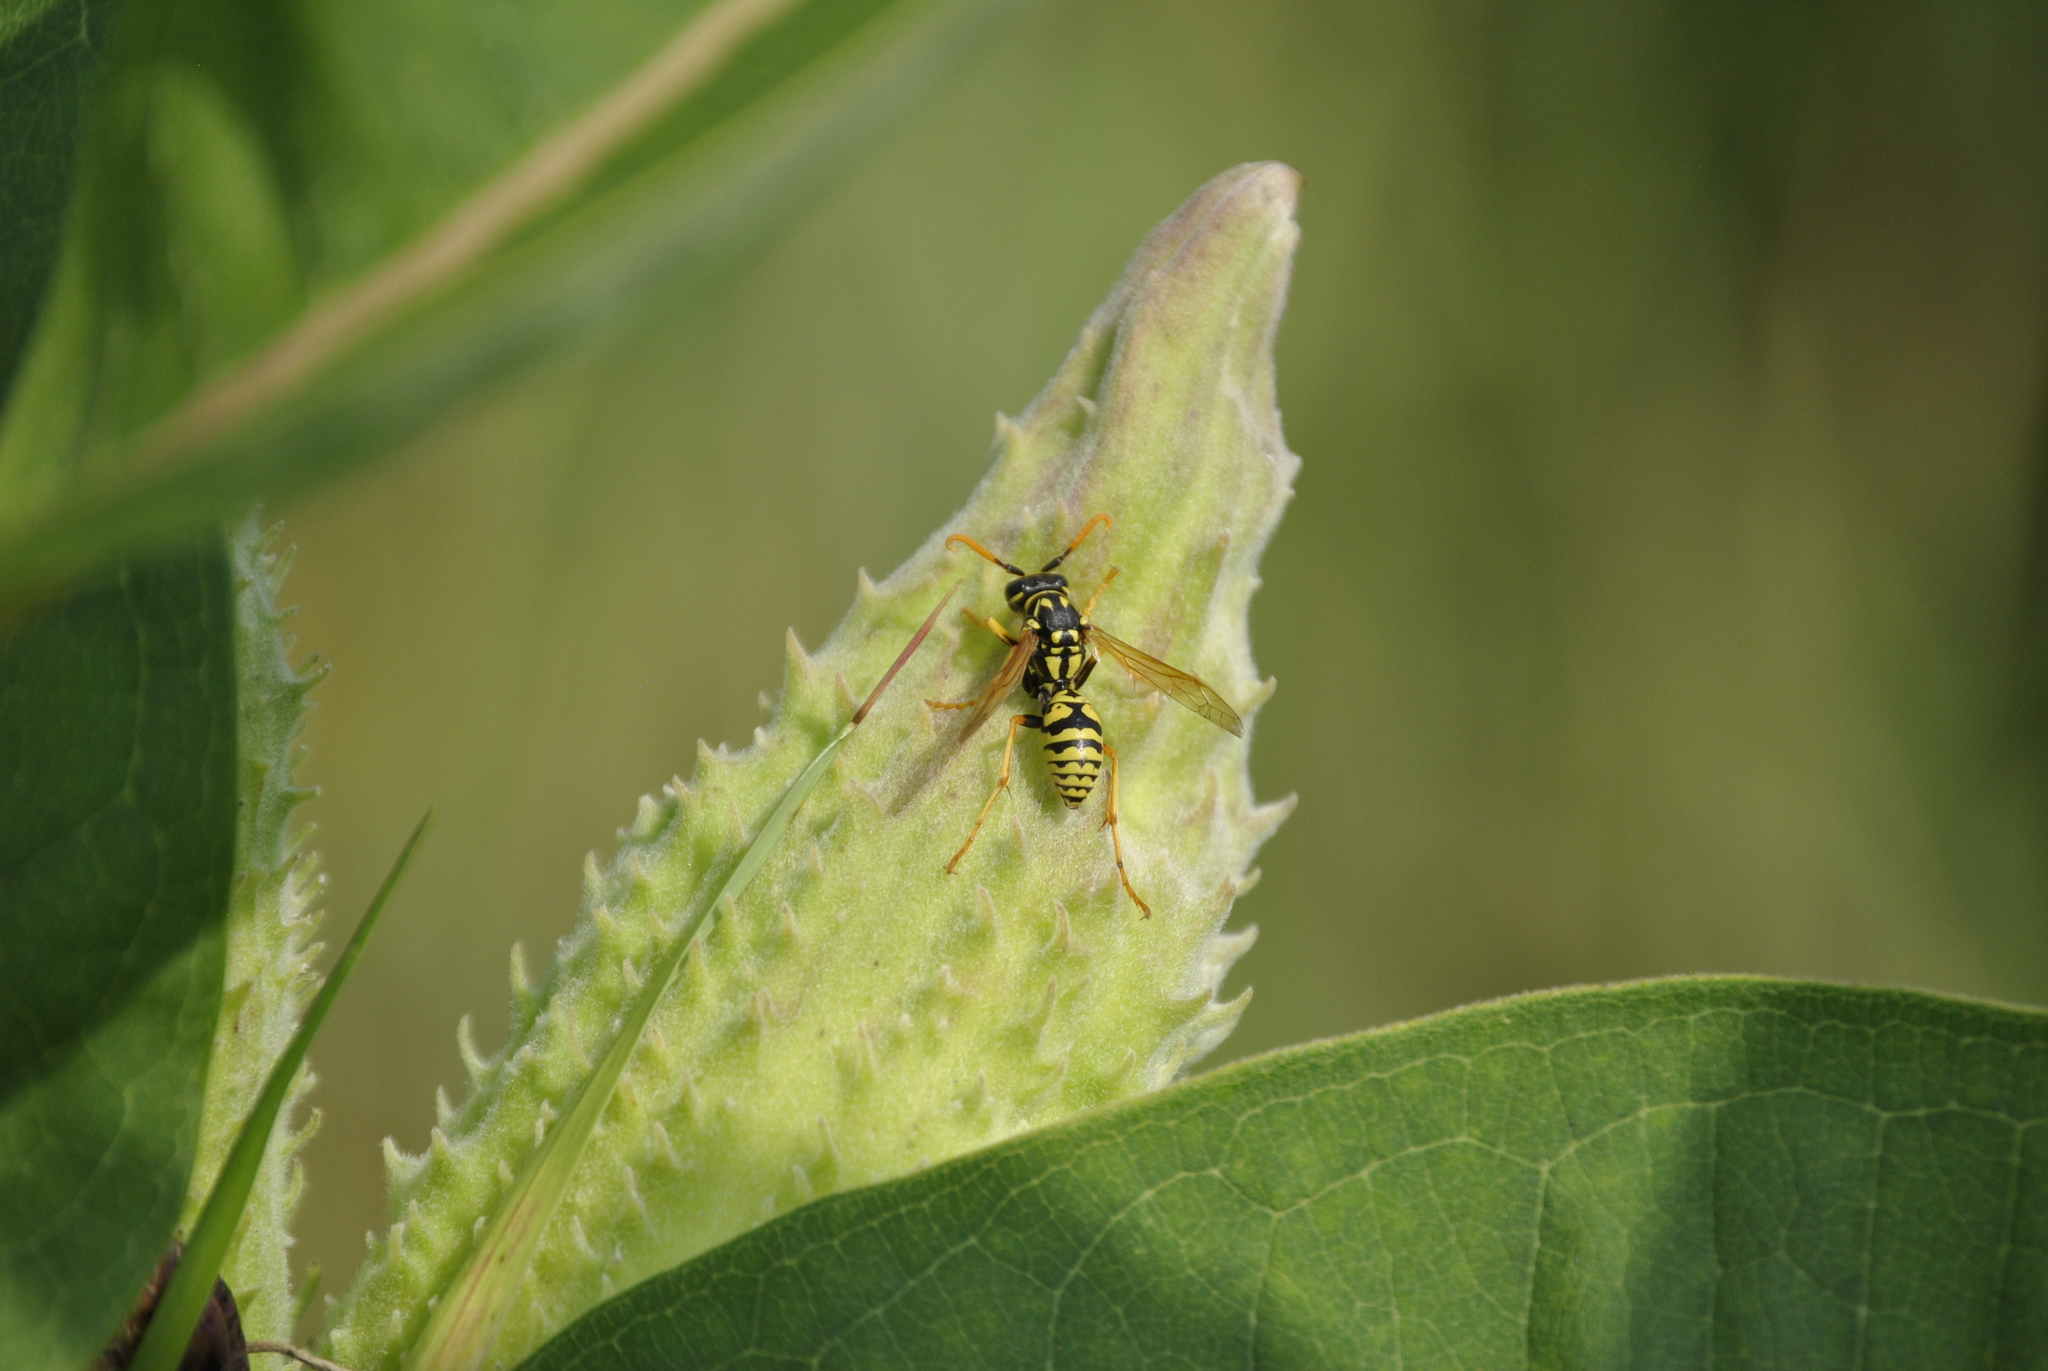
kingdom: Animalia
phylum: Arthropoda
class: Insecta
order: Hymenoptera
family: Eumenidae
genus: Polistes
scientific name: Polistes dominula
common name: Paper wasp
